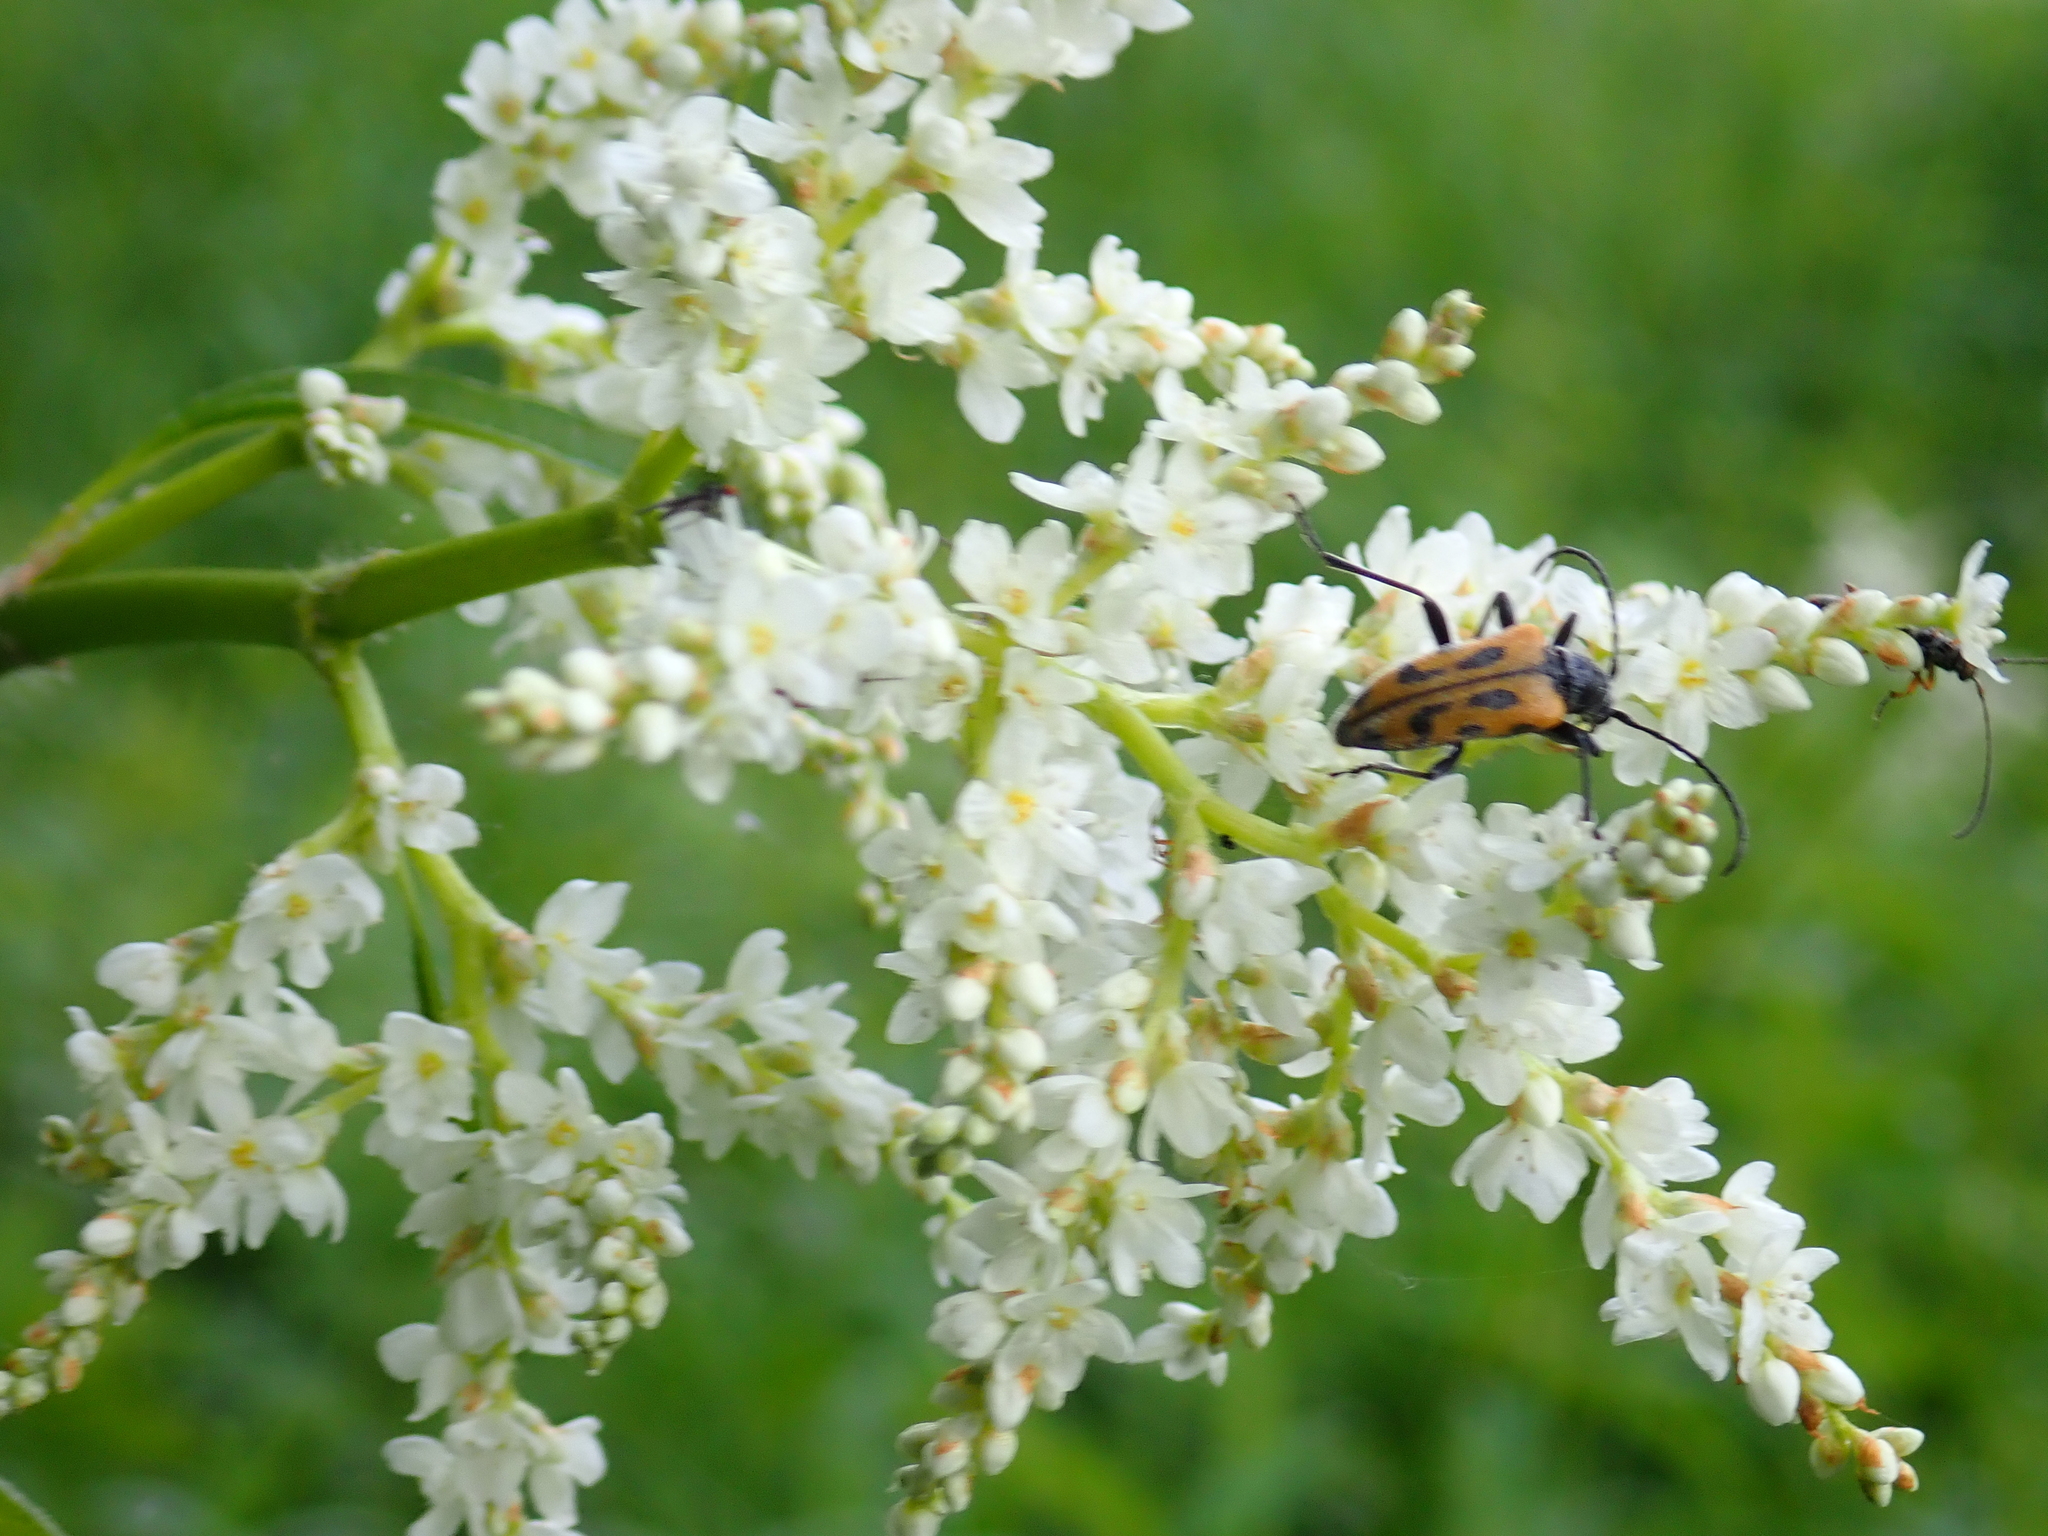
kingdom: Animalia
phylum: Arthropoda
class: Insecta
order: Coleoptera
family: Cerambycidae
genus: Brachyta
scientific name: Brachyta interrogationis
